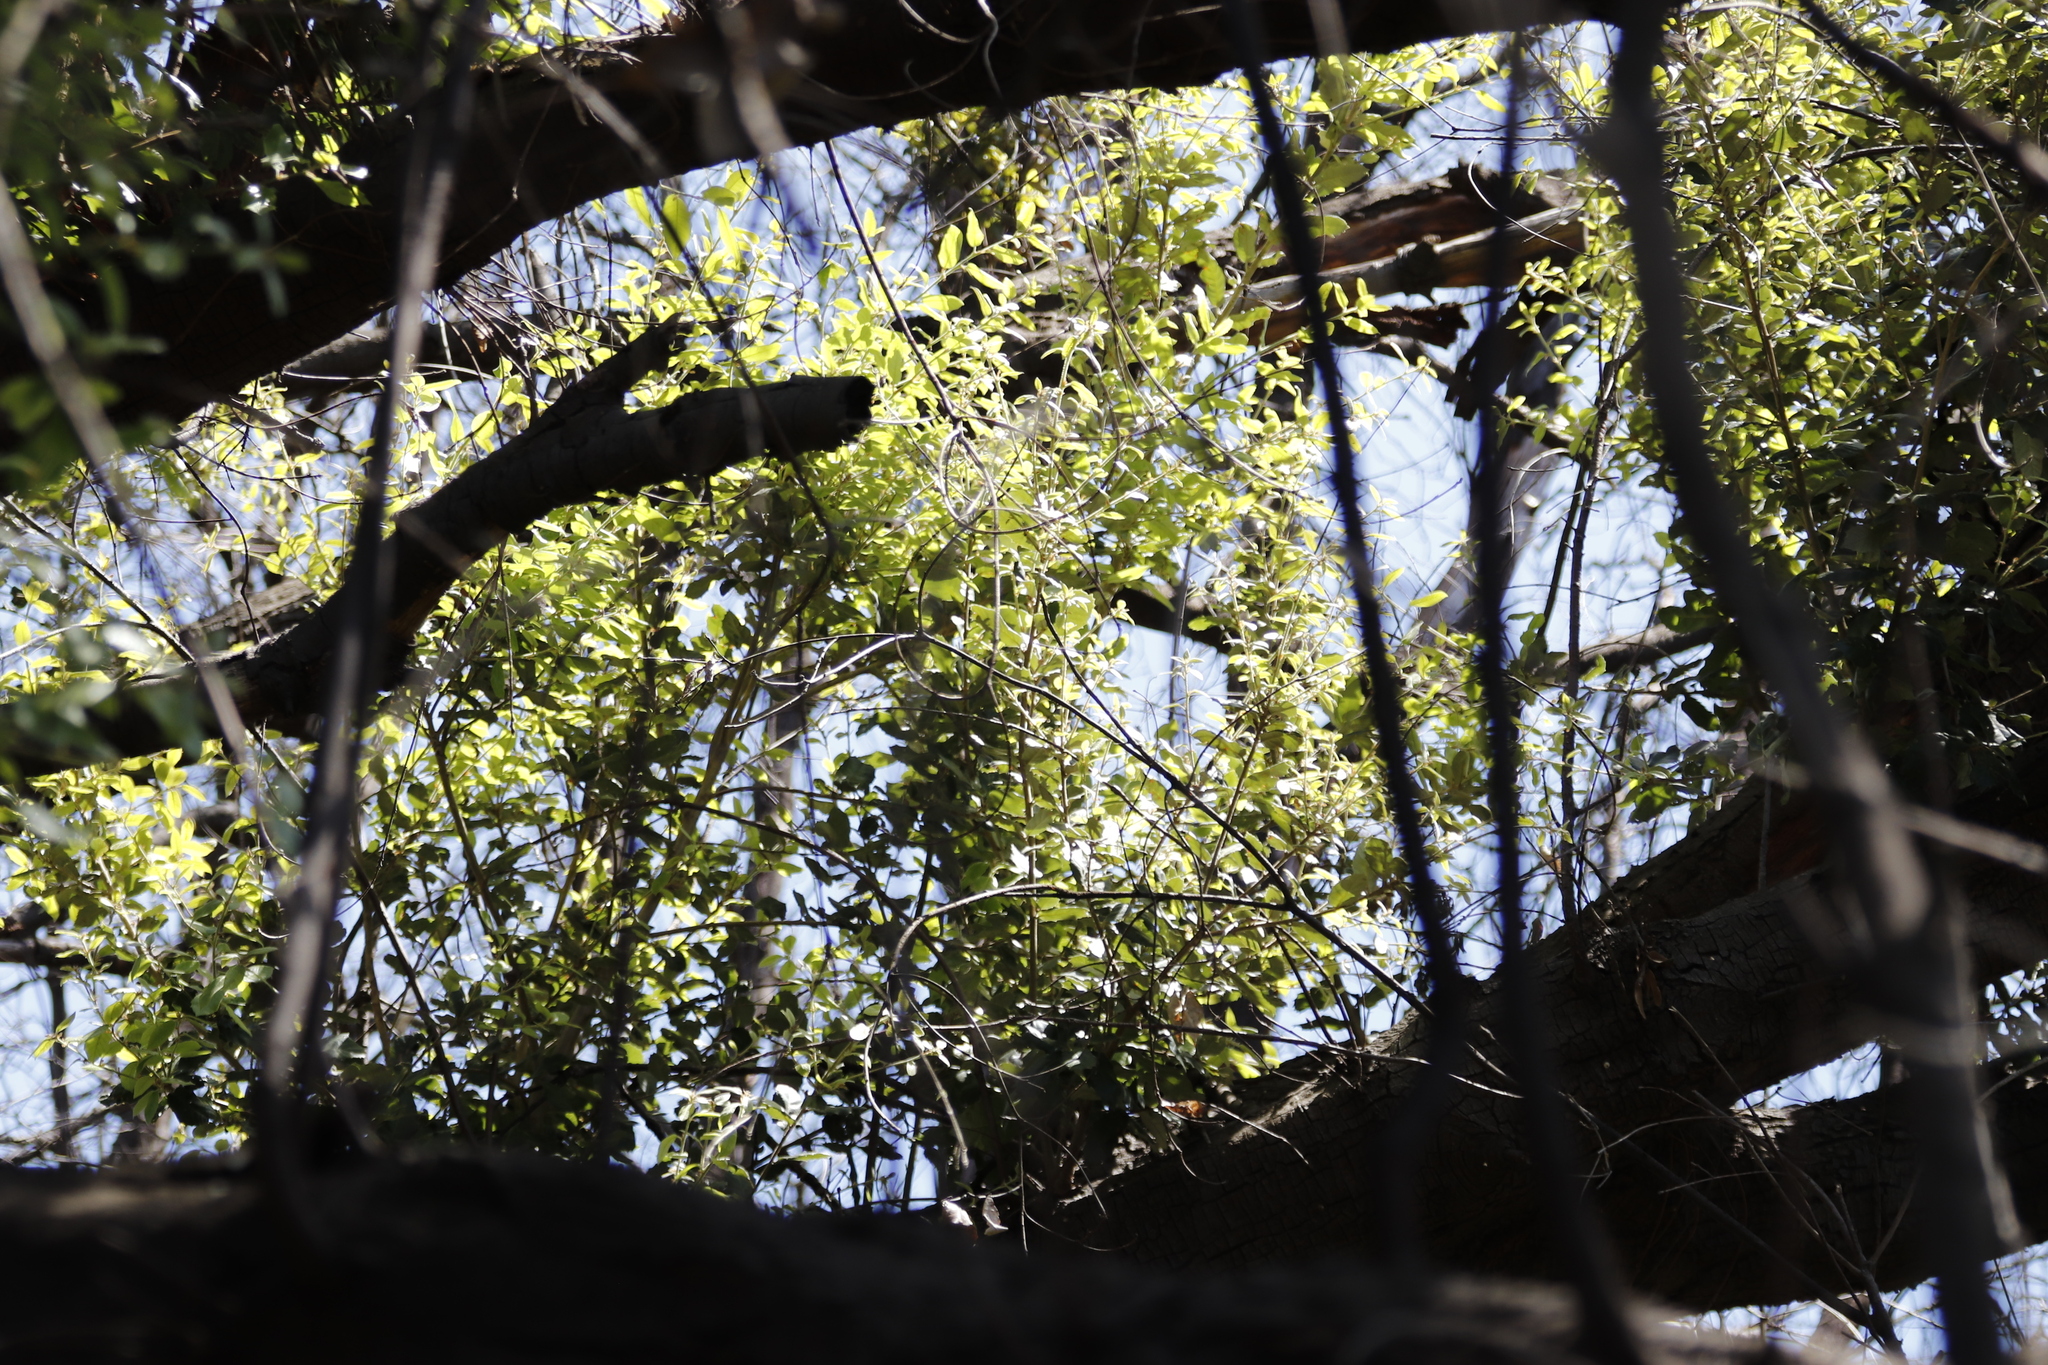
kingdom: Plantae
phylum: Tracheophyta
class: Magnoliopsida
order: Fagales
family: Fagaceae
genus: Quercus
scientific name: Quercus ilex
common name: Evergreen oak
